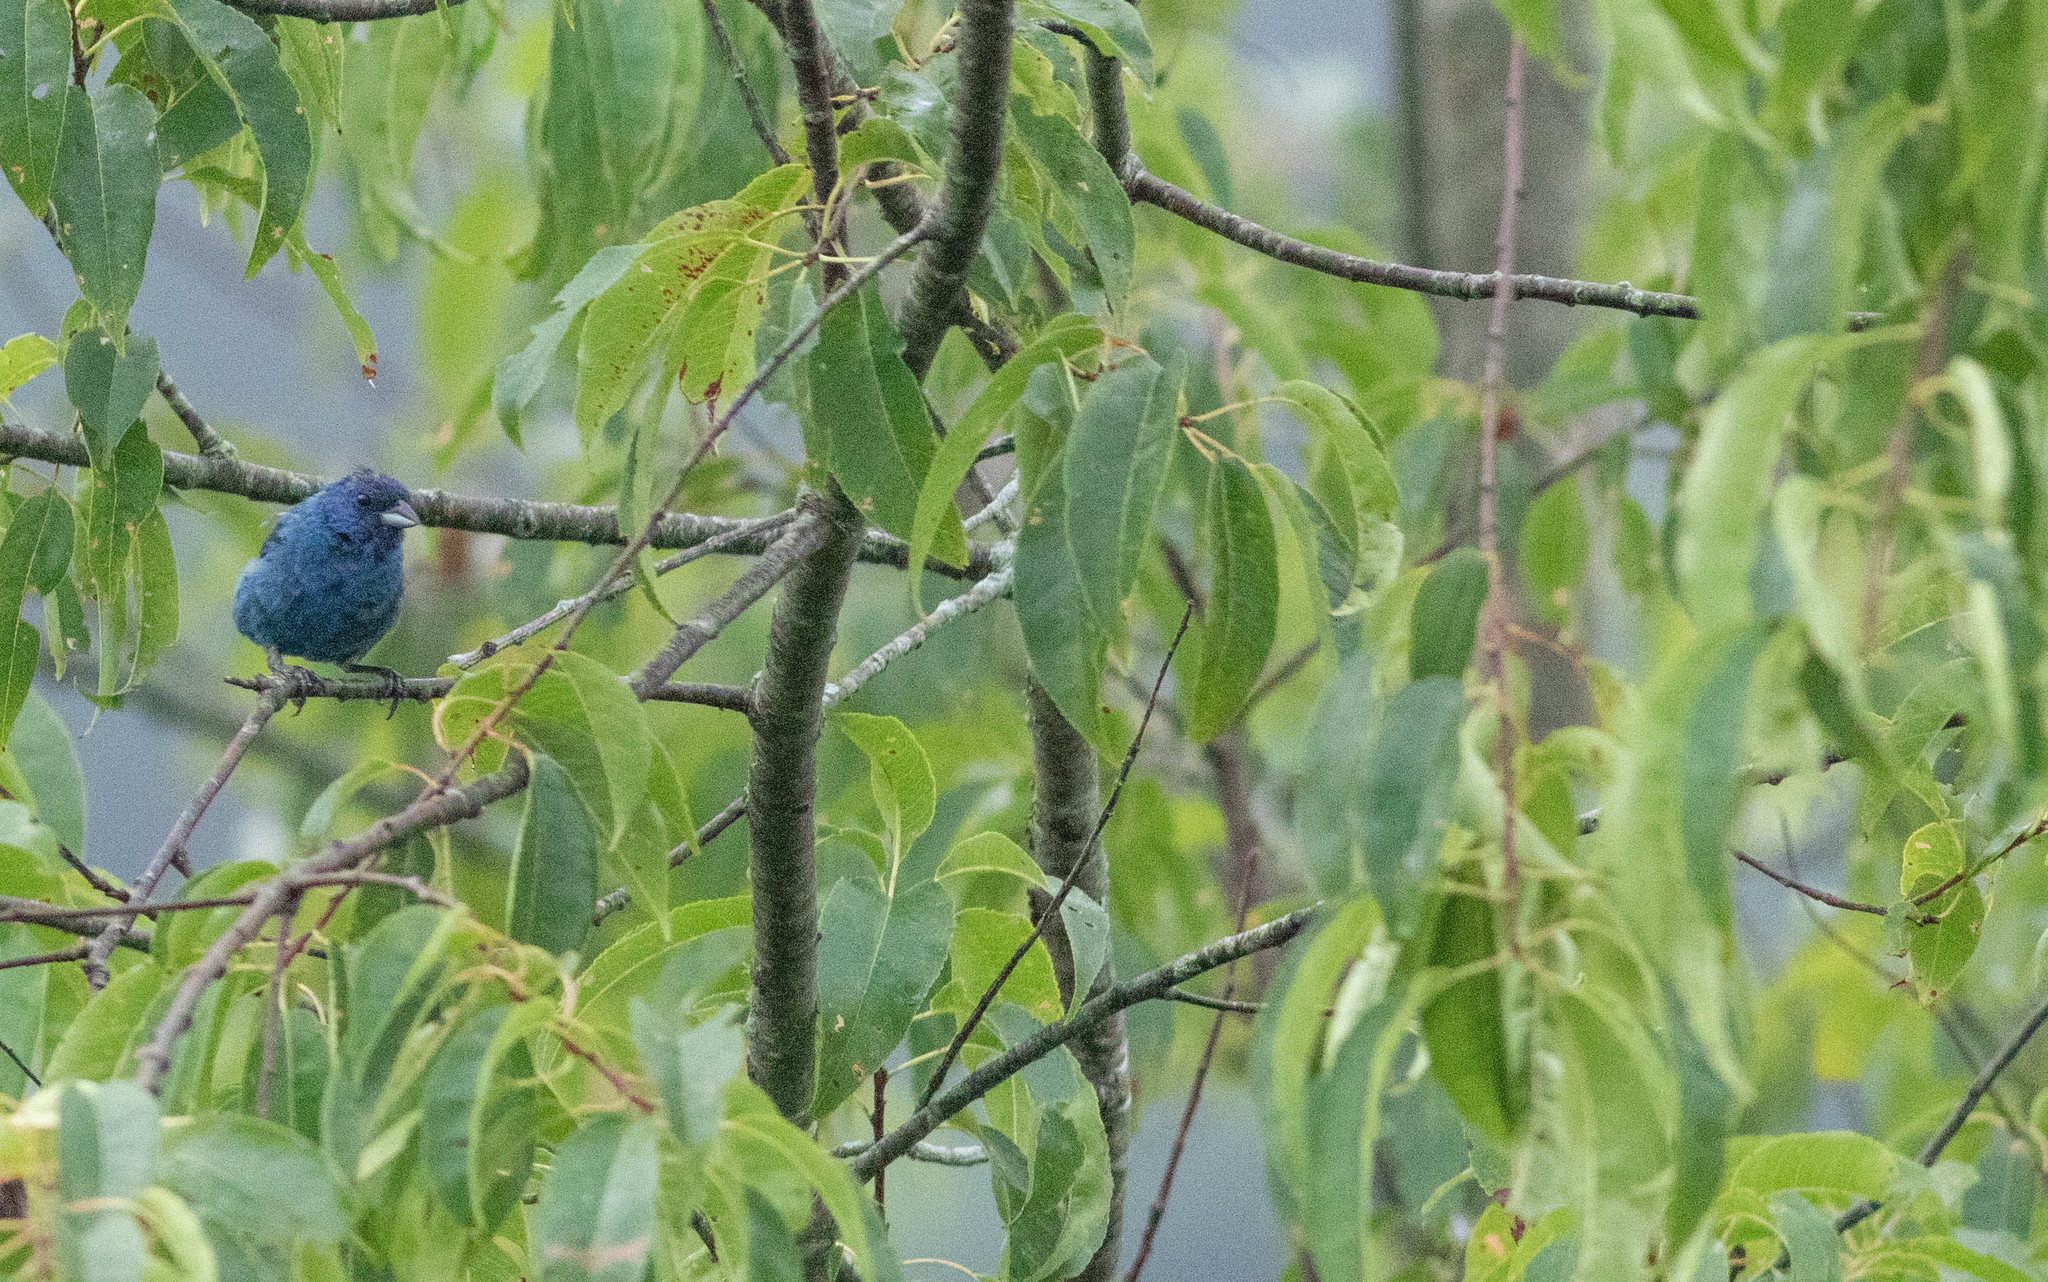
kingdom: Animalia
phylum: Chordata
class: Aves
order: Passeriformes
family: Cardinalidae
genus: Passerina
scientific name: Passerina cyanea
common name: Indigo bunting
